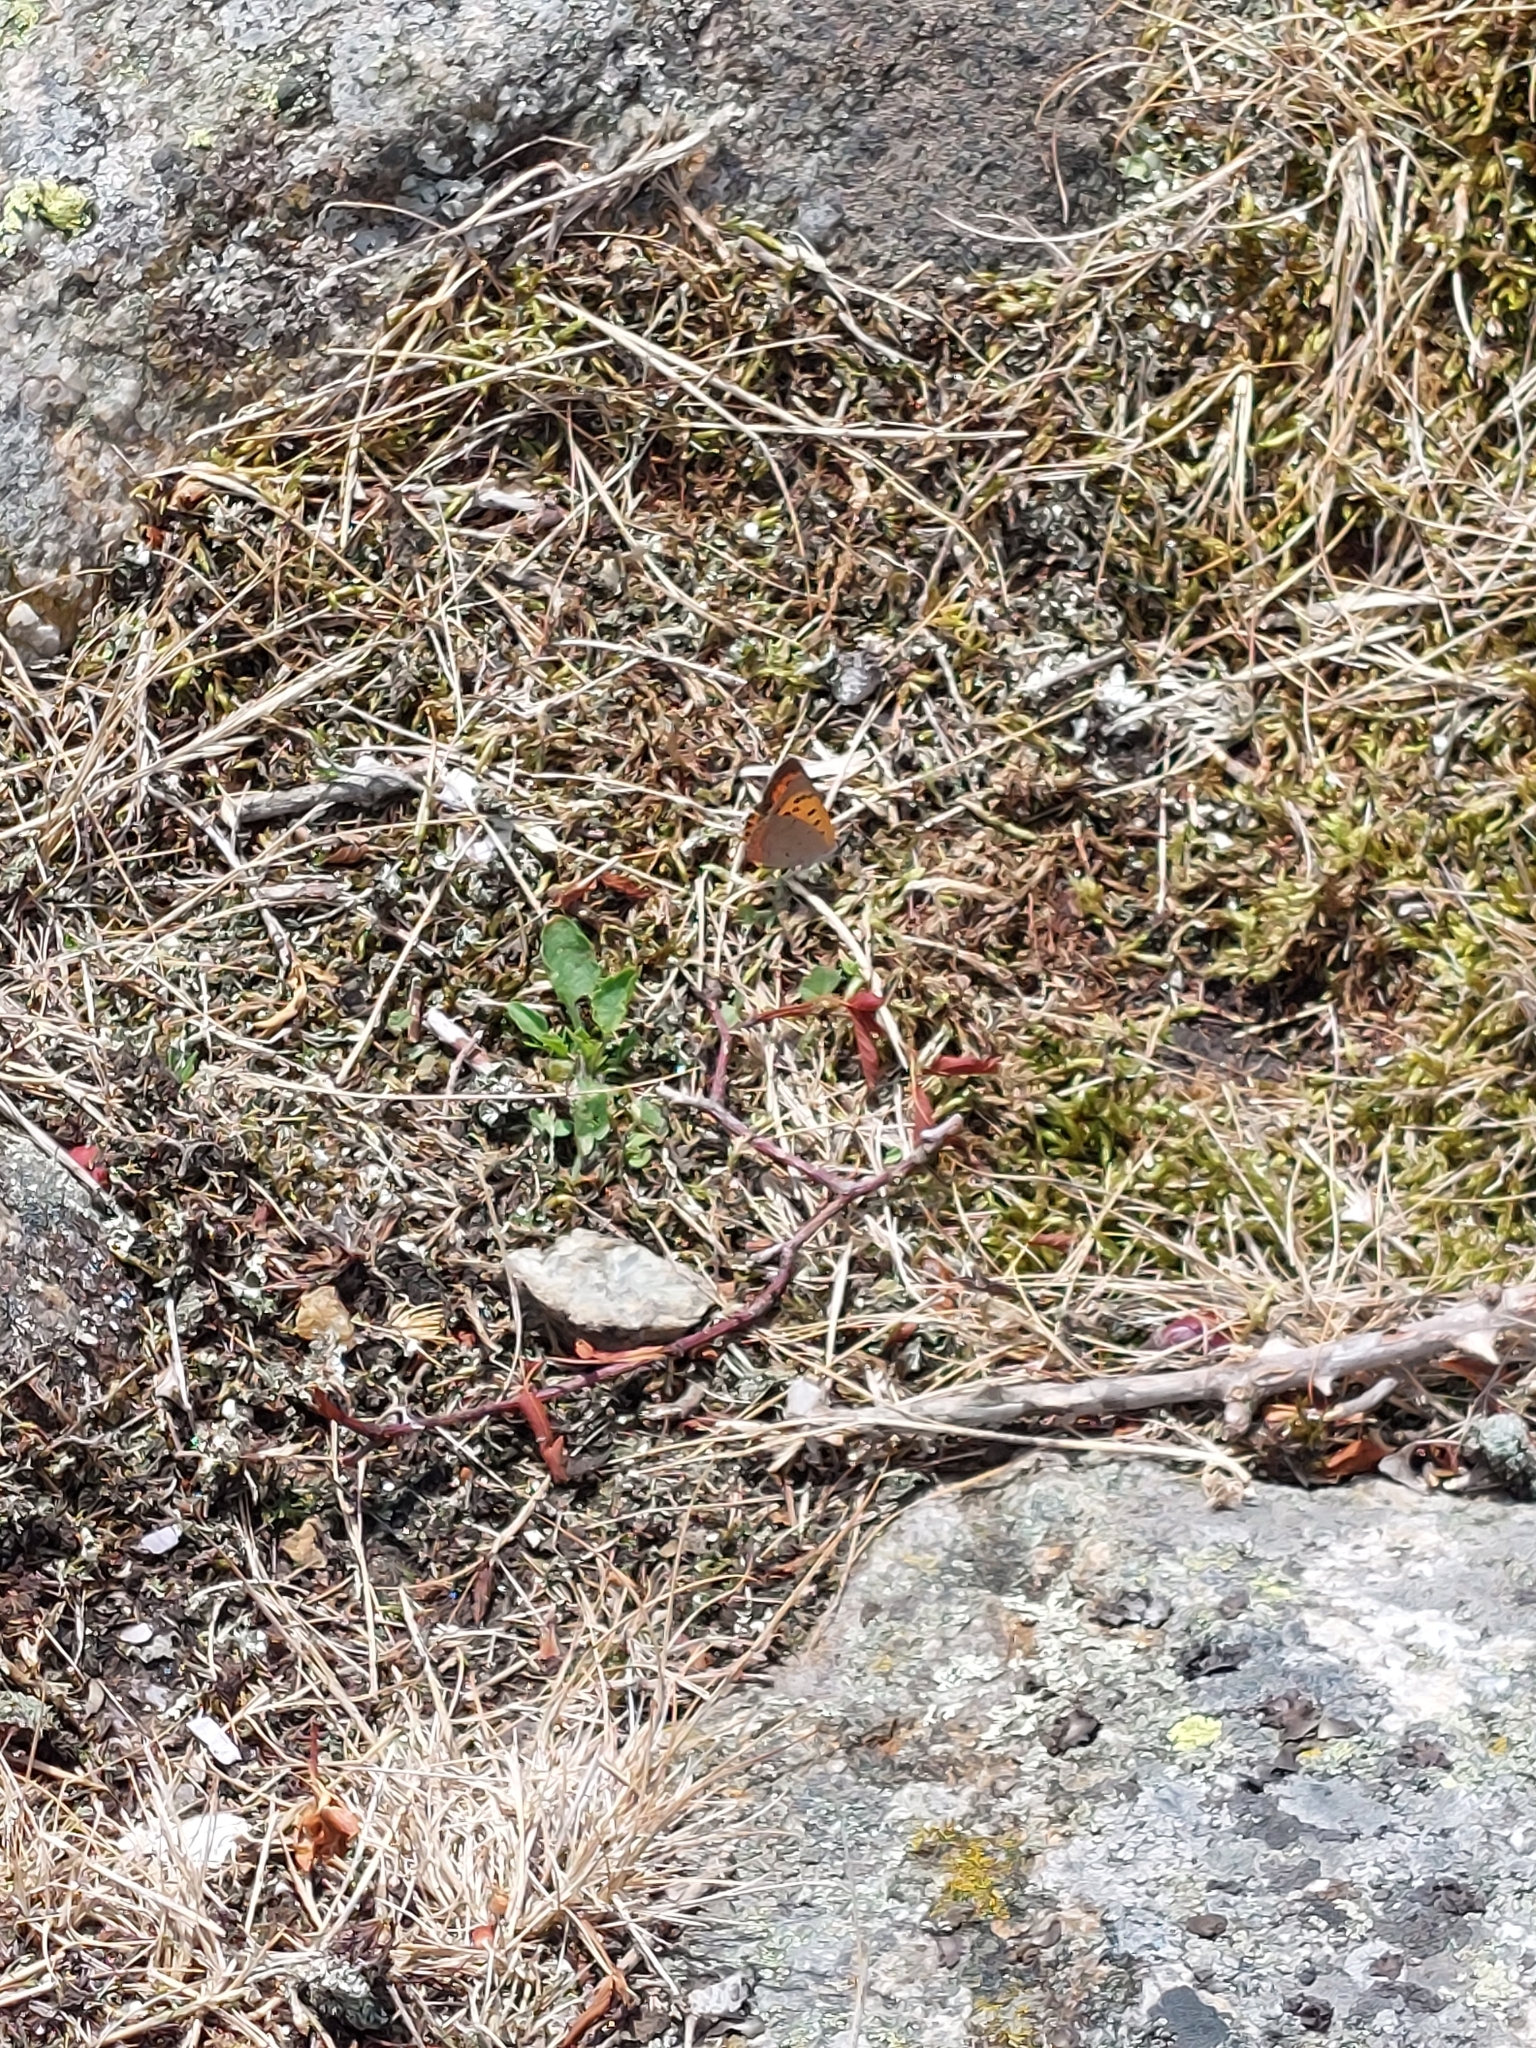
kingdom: Animalia
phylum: Arthropoda
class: Insecta
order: Lepidoptera
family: Lycaenidae
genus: Lycaena
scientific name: Lycaena phlaeas
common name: Small copper
